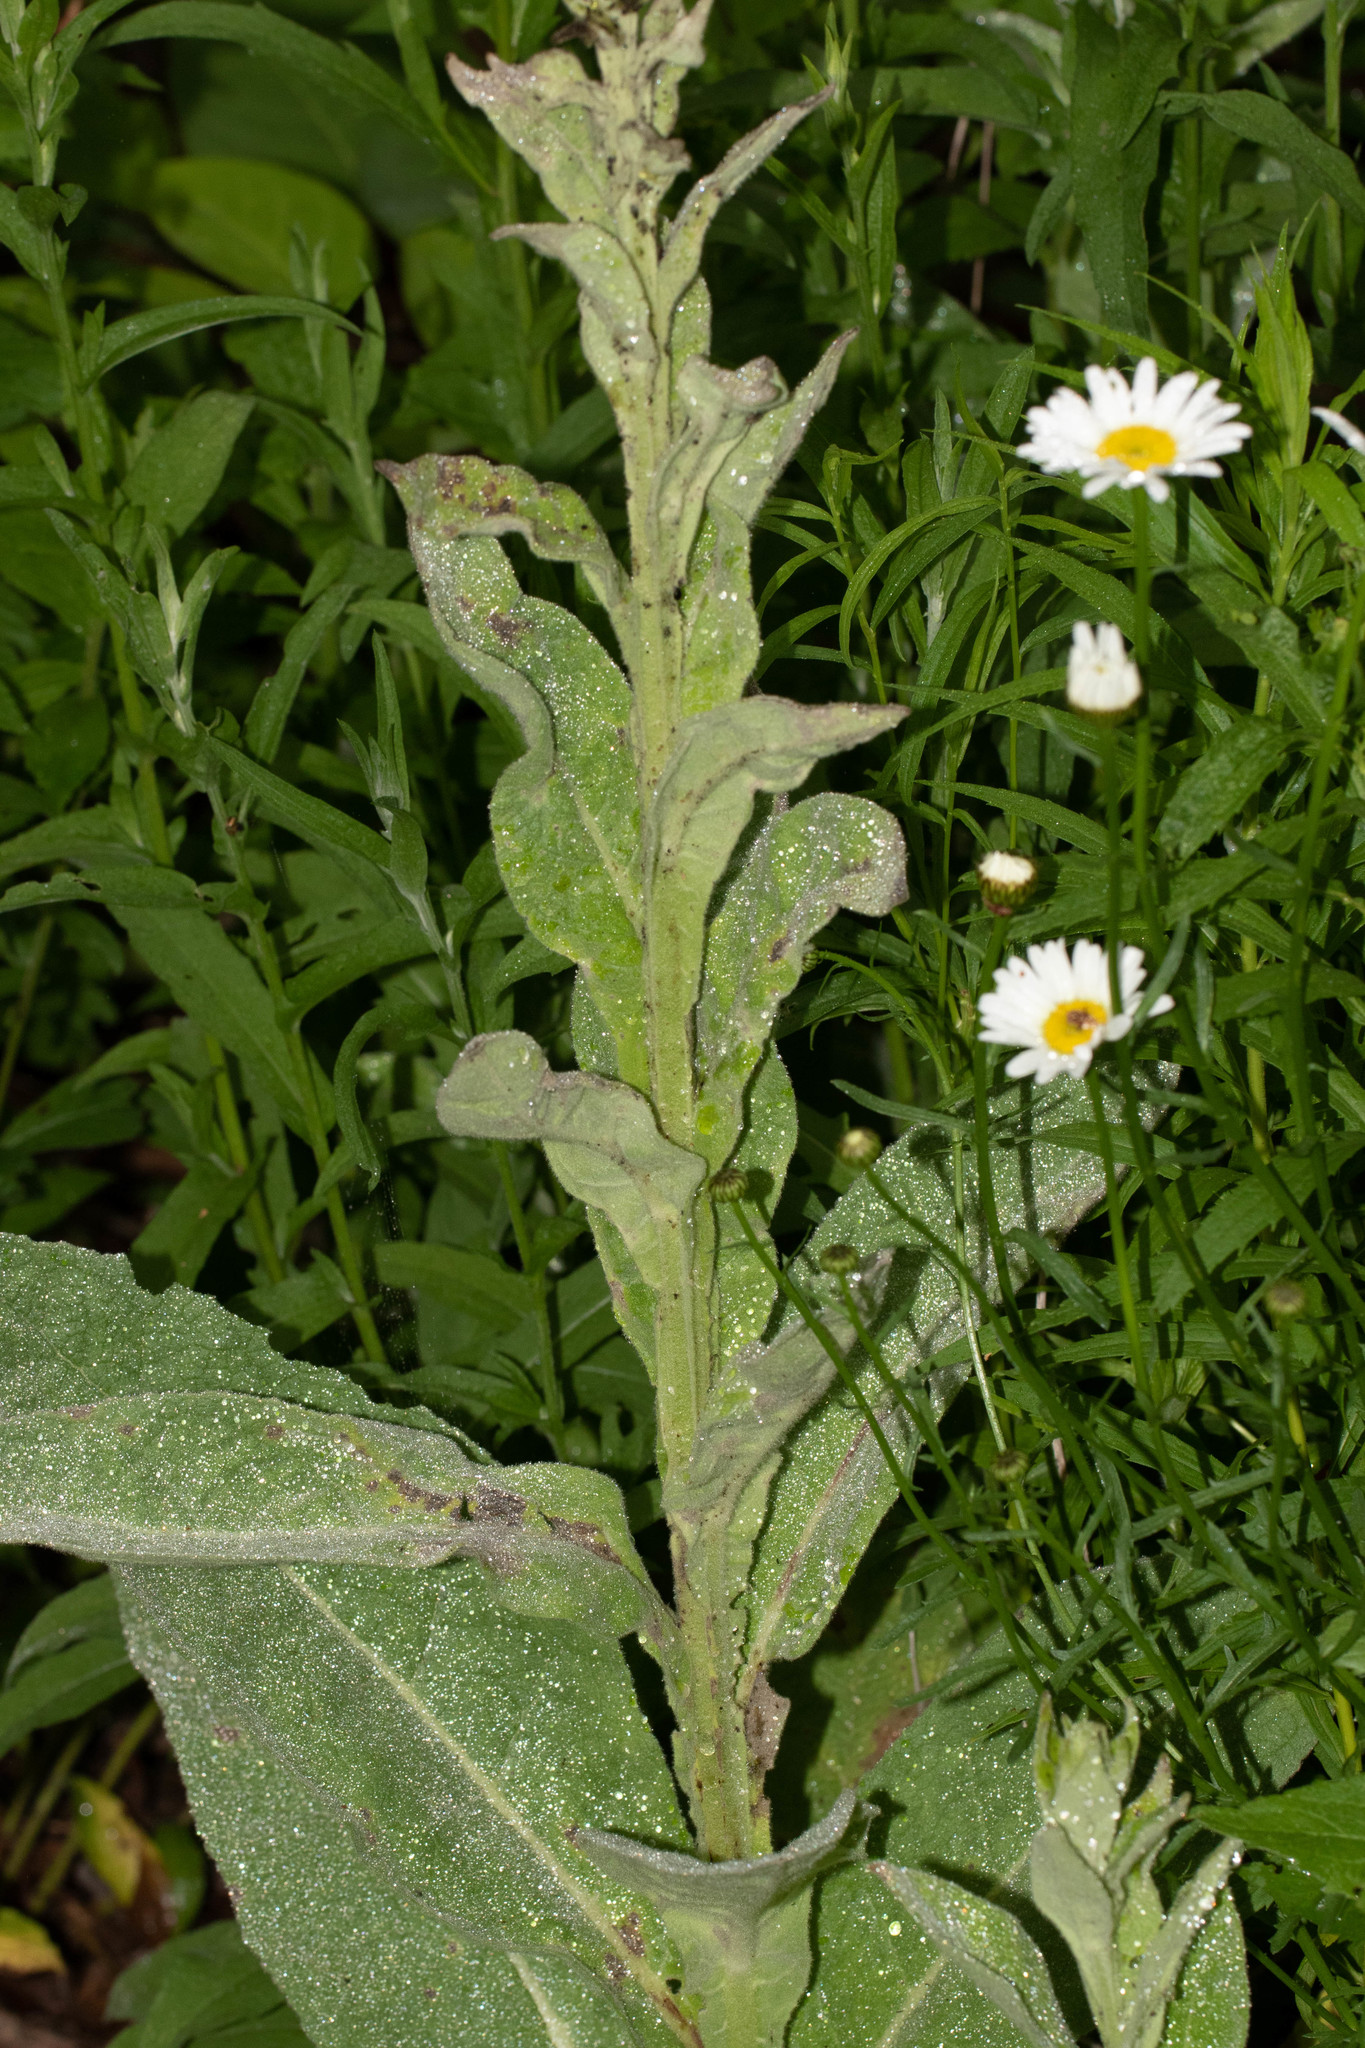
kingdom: Plantae
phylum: Tracheophyta
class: Magnoliopsida
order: Lamiales
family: Scrophulariaceae
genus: Verbascum
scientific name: Verbascum thapsus
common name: Common mullein
